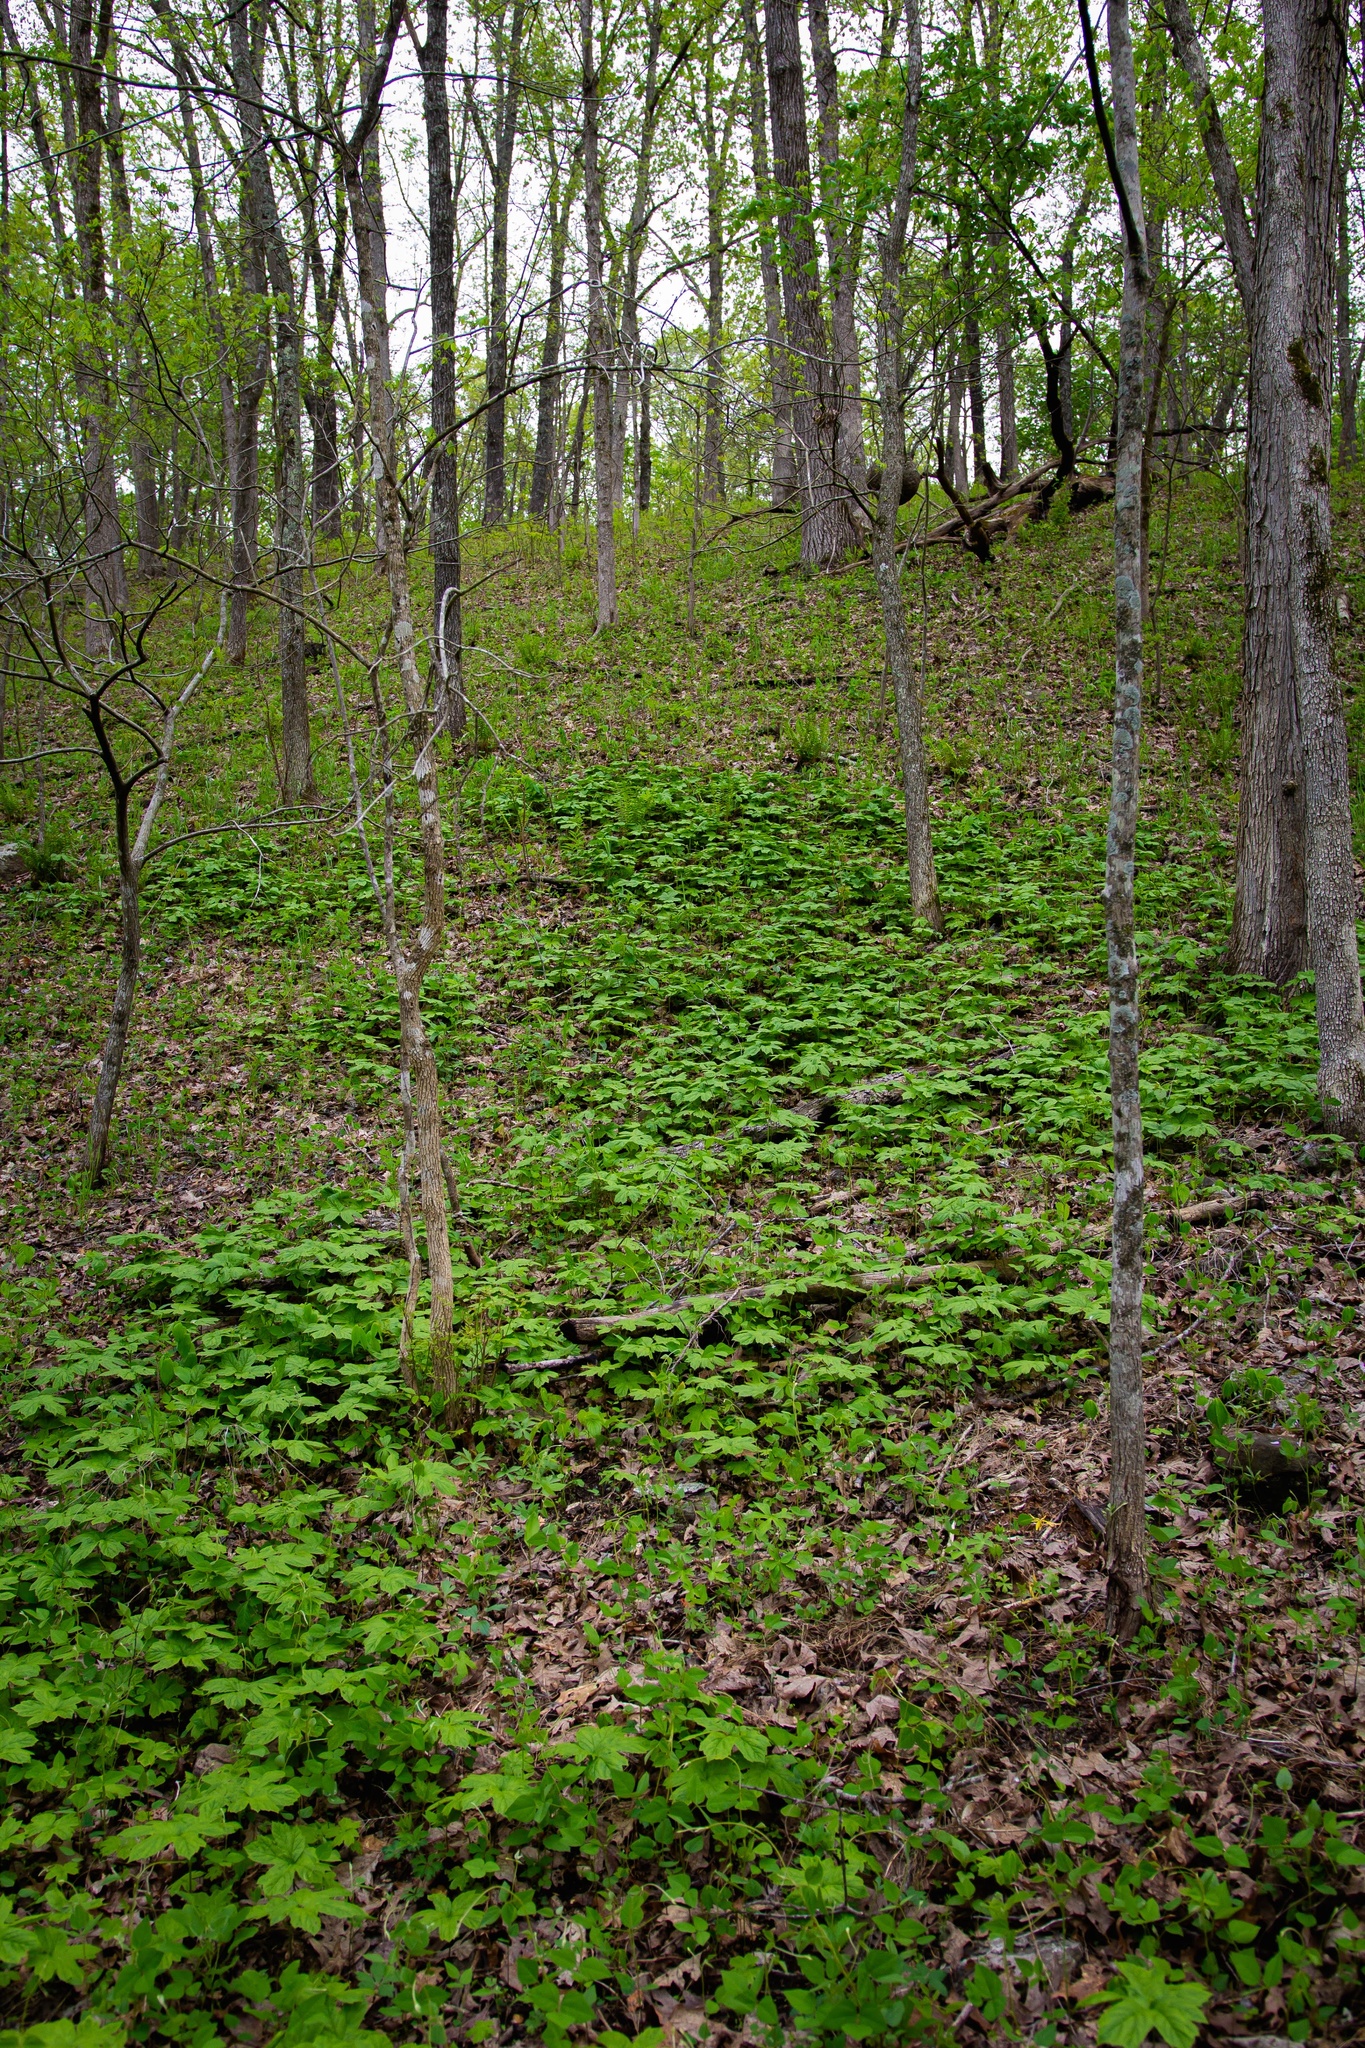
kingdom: Plantae
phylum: Tracheophyta
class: Magnoliopsida
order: Ranunculales
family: Ranunculaceae
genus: Hydrastis
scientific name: Hydrastis canadensis
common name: Goldenseal
